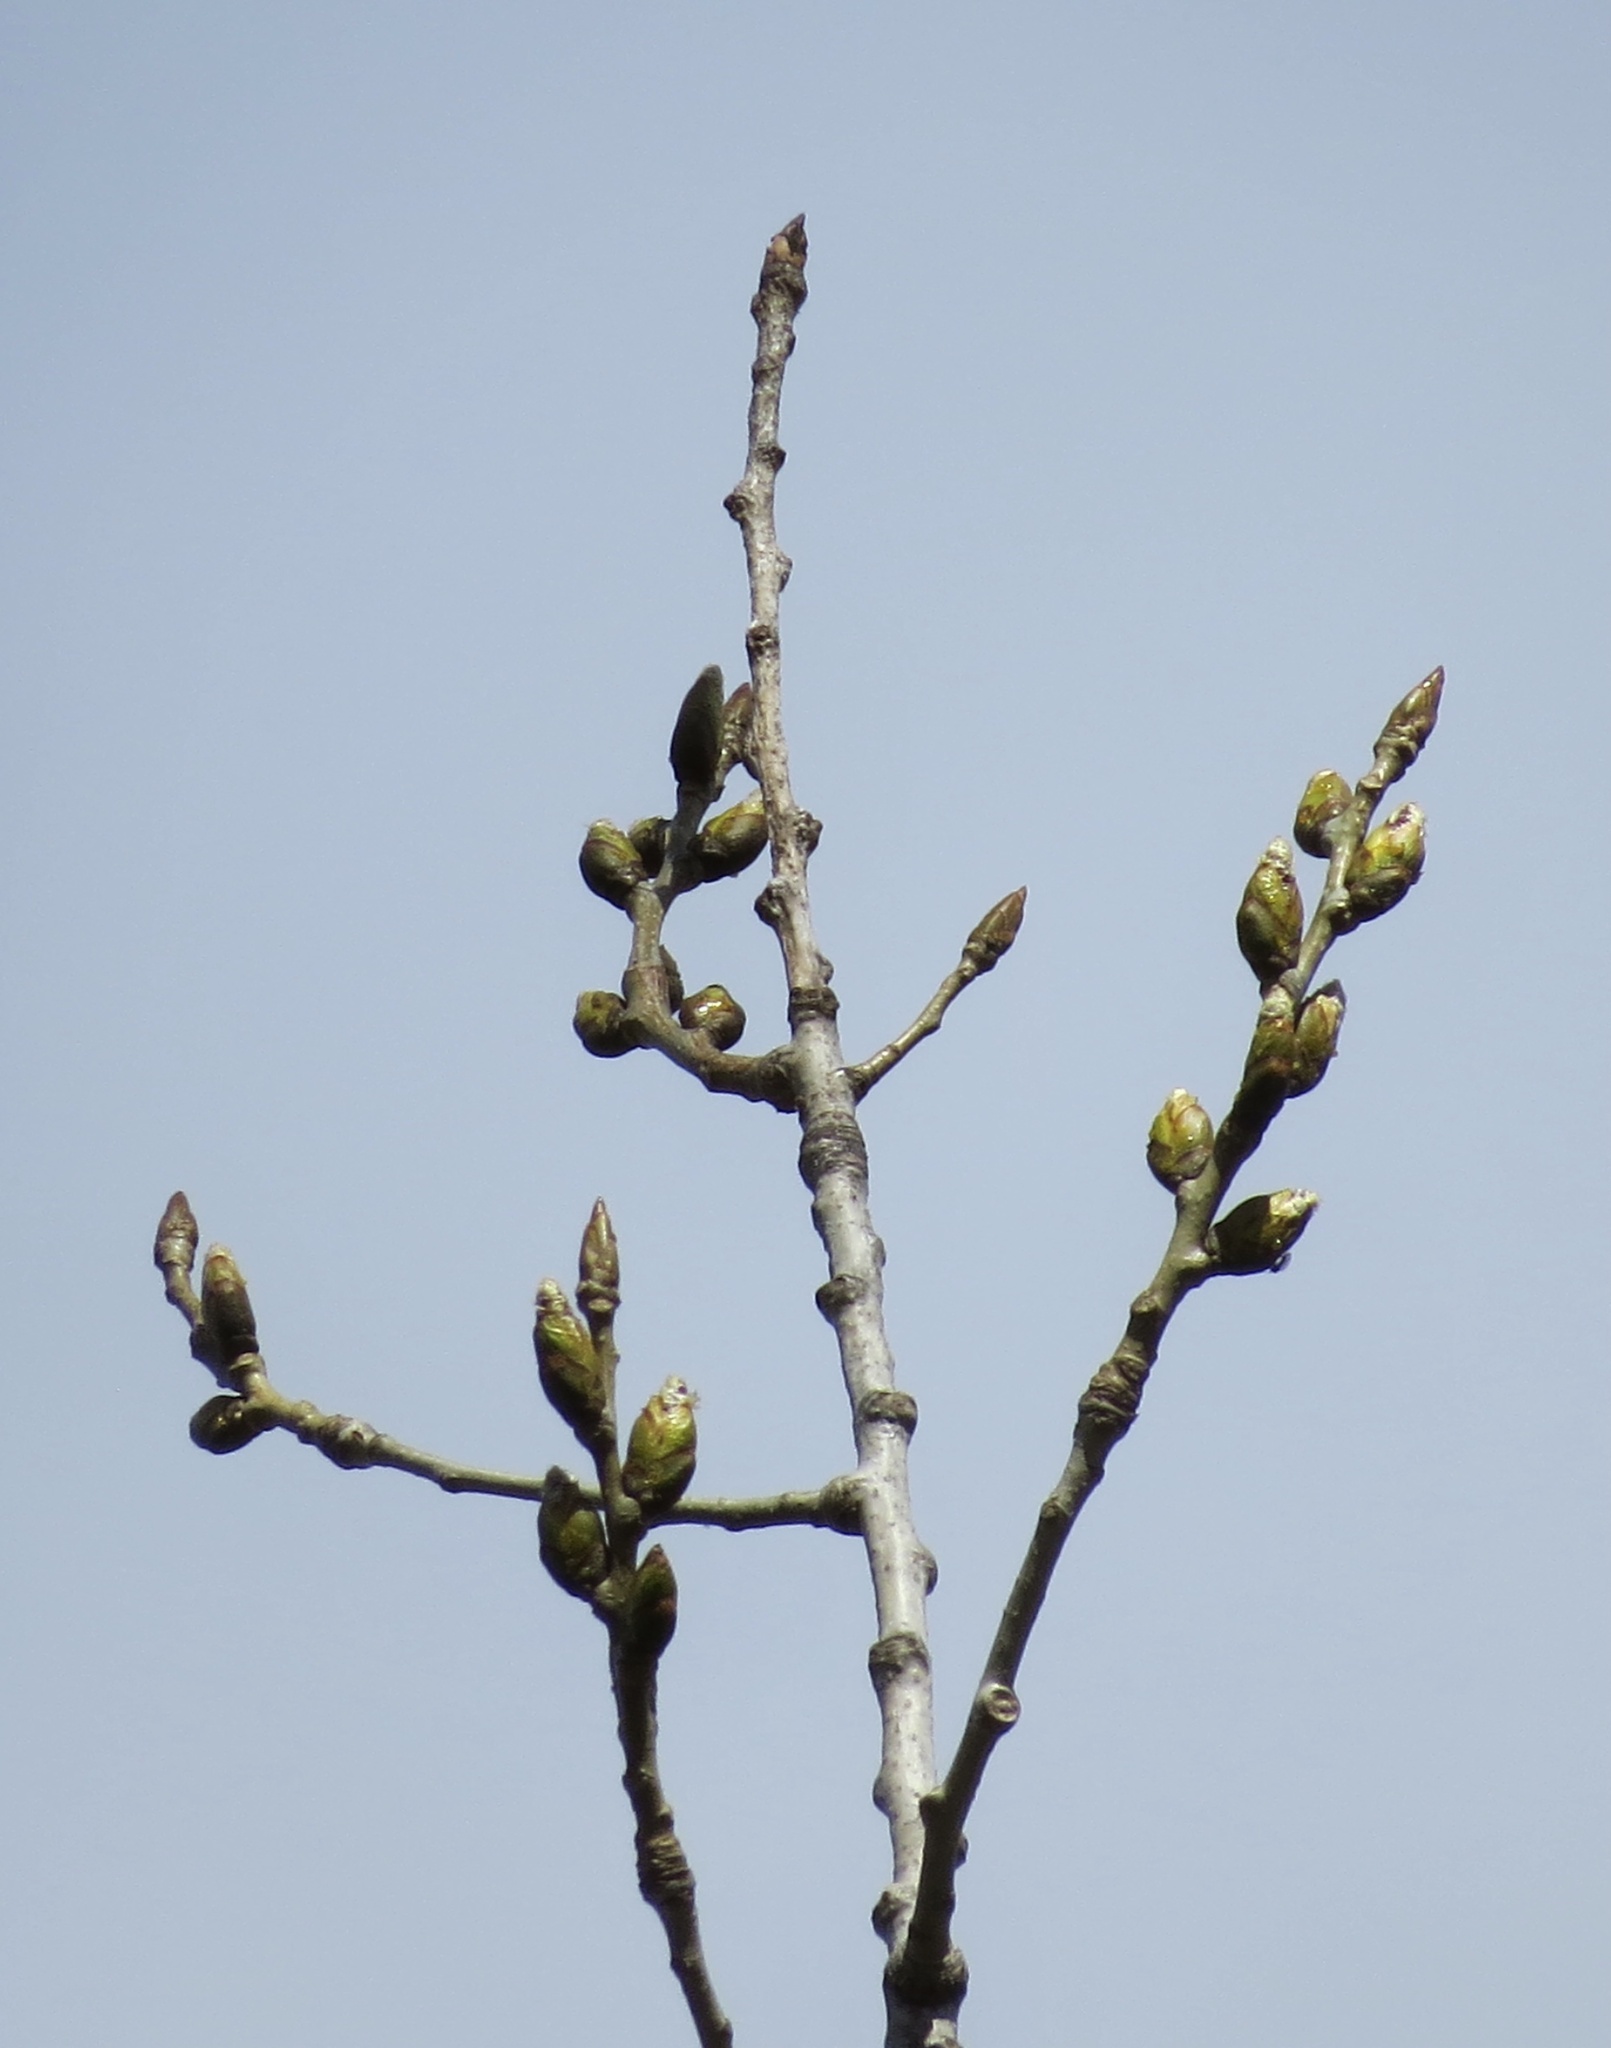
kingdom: Plantae
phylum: Tracheophyta
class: Magnoliopsida
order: Malpighiales
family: Salicaceae
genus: Populus
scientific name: Populus deltoides
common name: Eastern cottonwood
